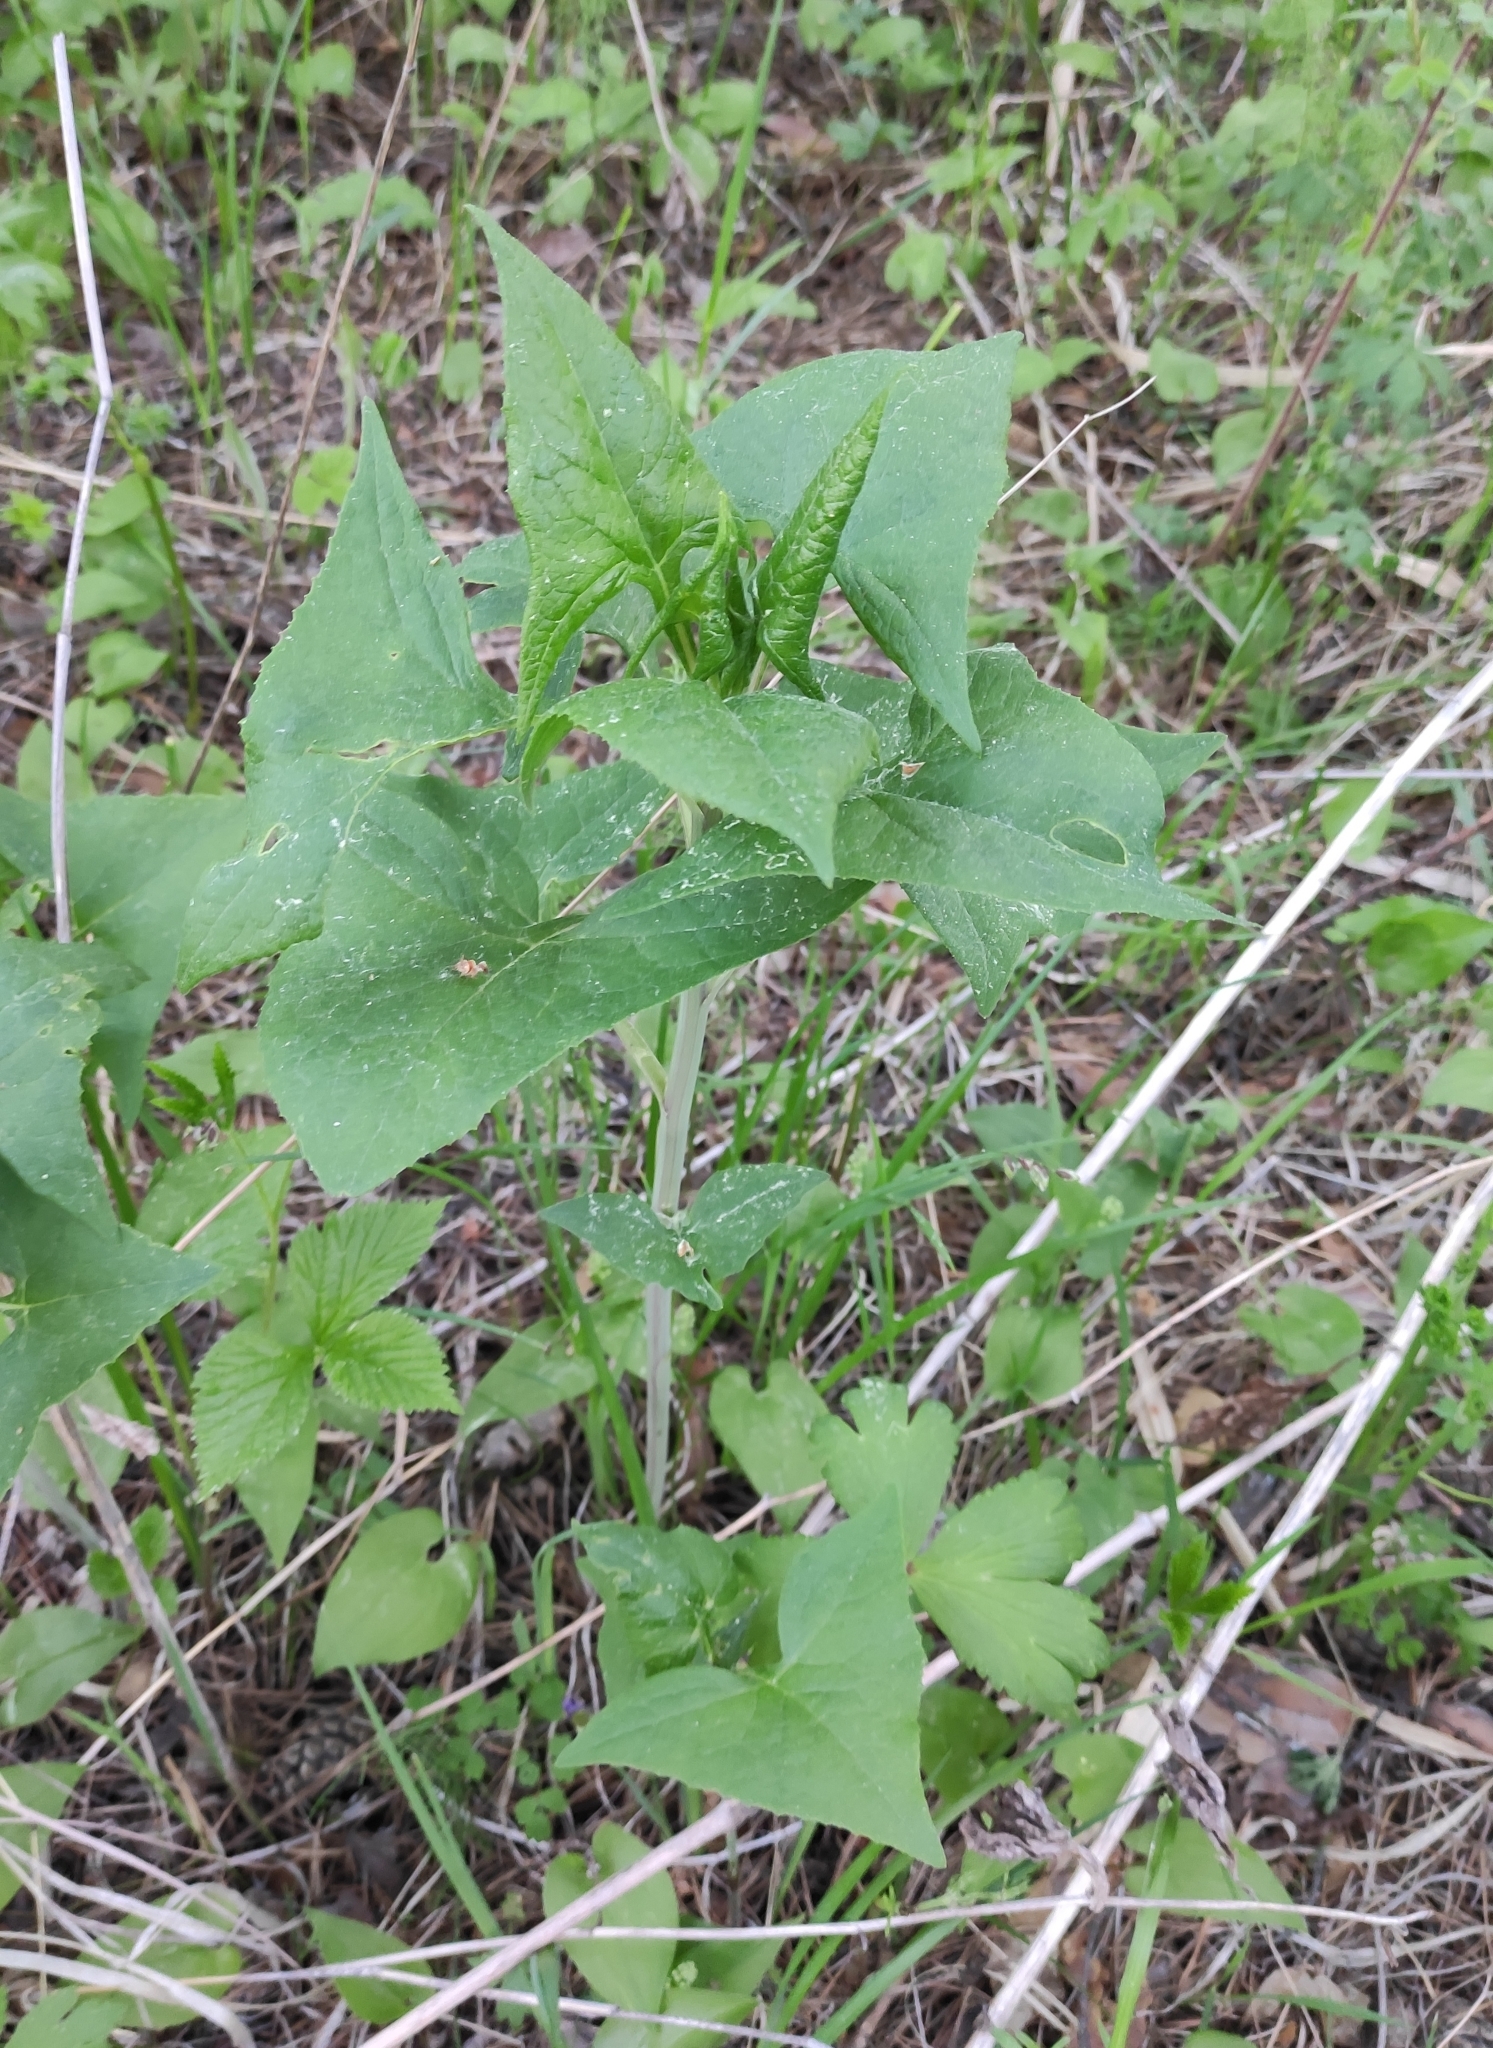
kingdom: Plantae
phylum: Tracheophyta
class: Magnoliopsida
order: Asterales
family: Asteraceae
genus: Parasenecio
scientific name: Parasenecio hastatus
